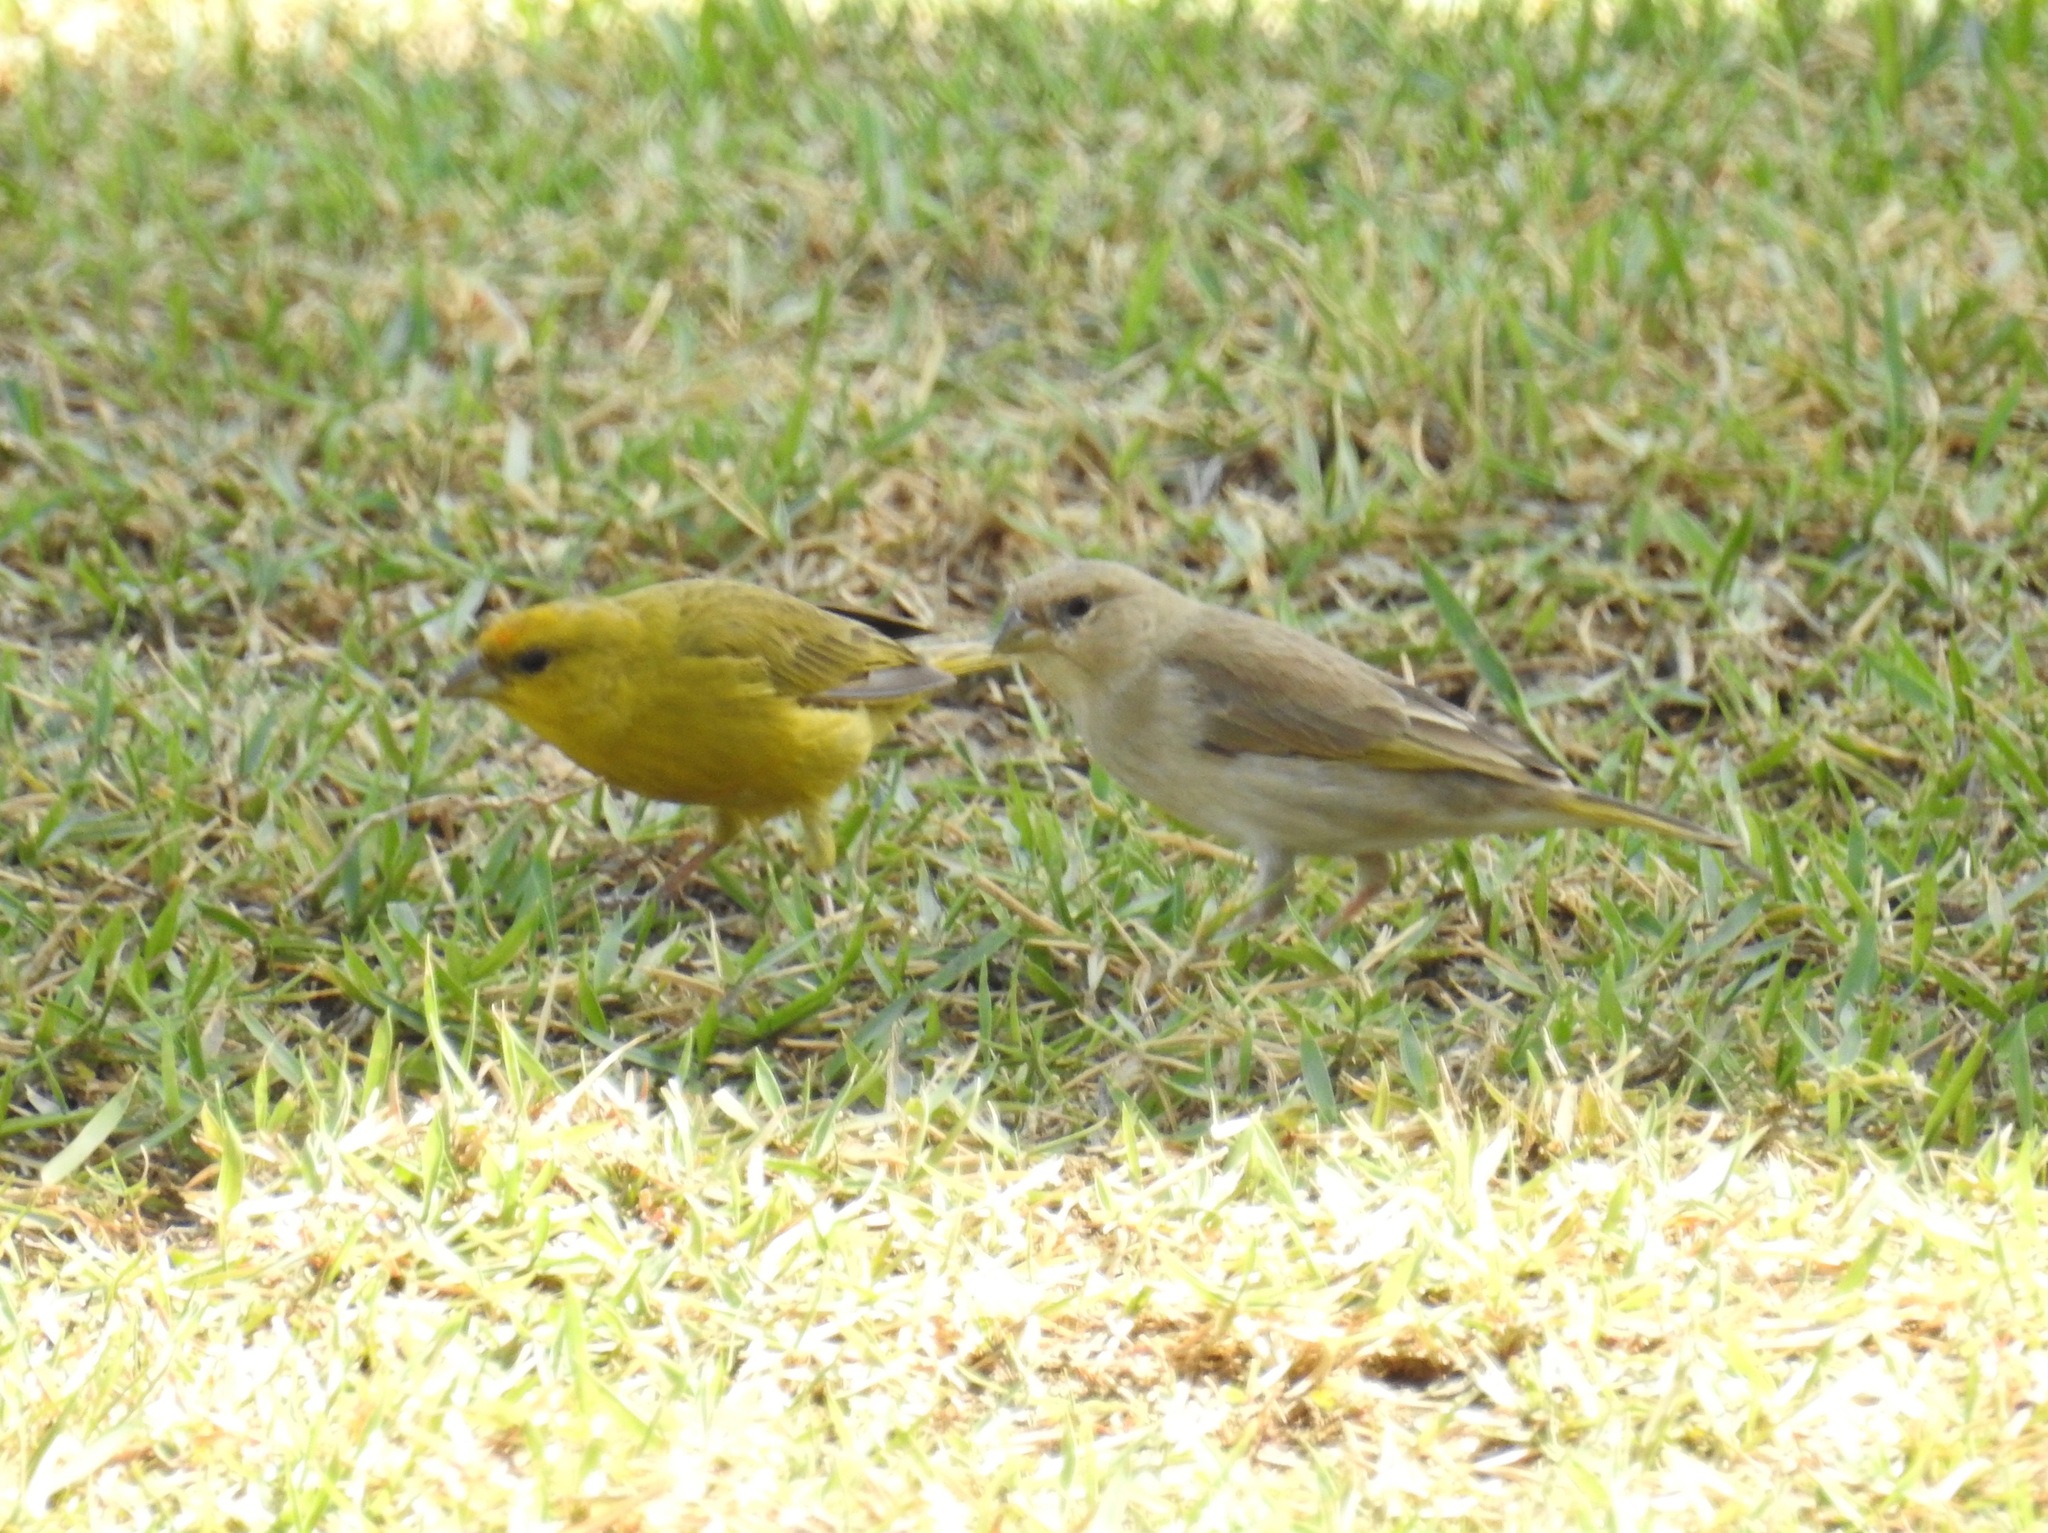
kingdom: Animalia
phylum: Chordata
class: Aves
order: Passeriformes
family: Thraupidae
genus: Sicalis
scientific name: Sicalis columbiana
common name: Orange-fronted yellow-finch
